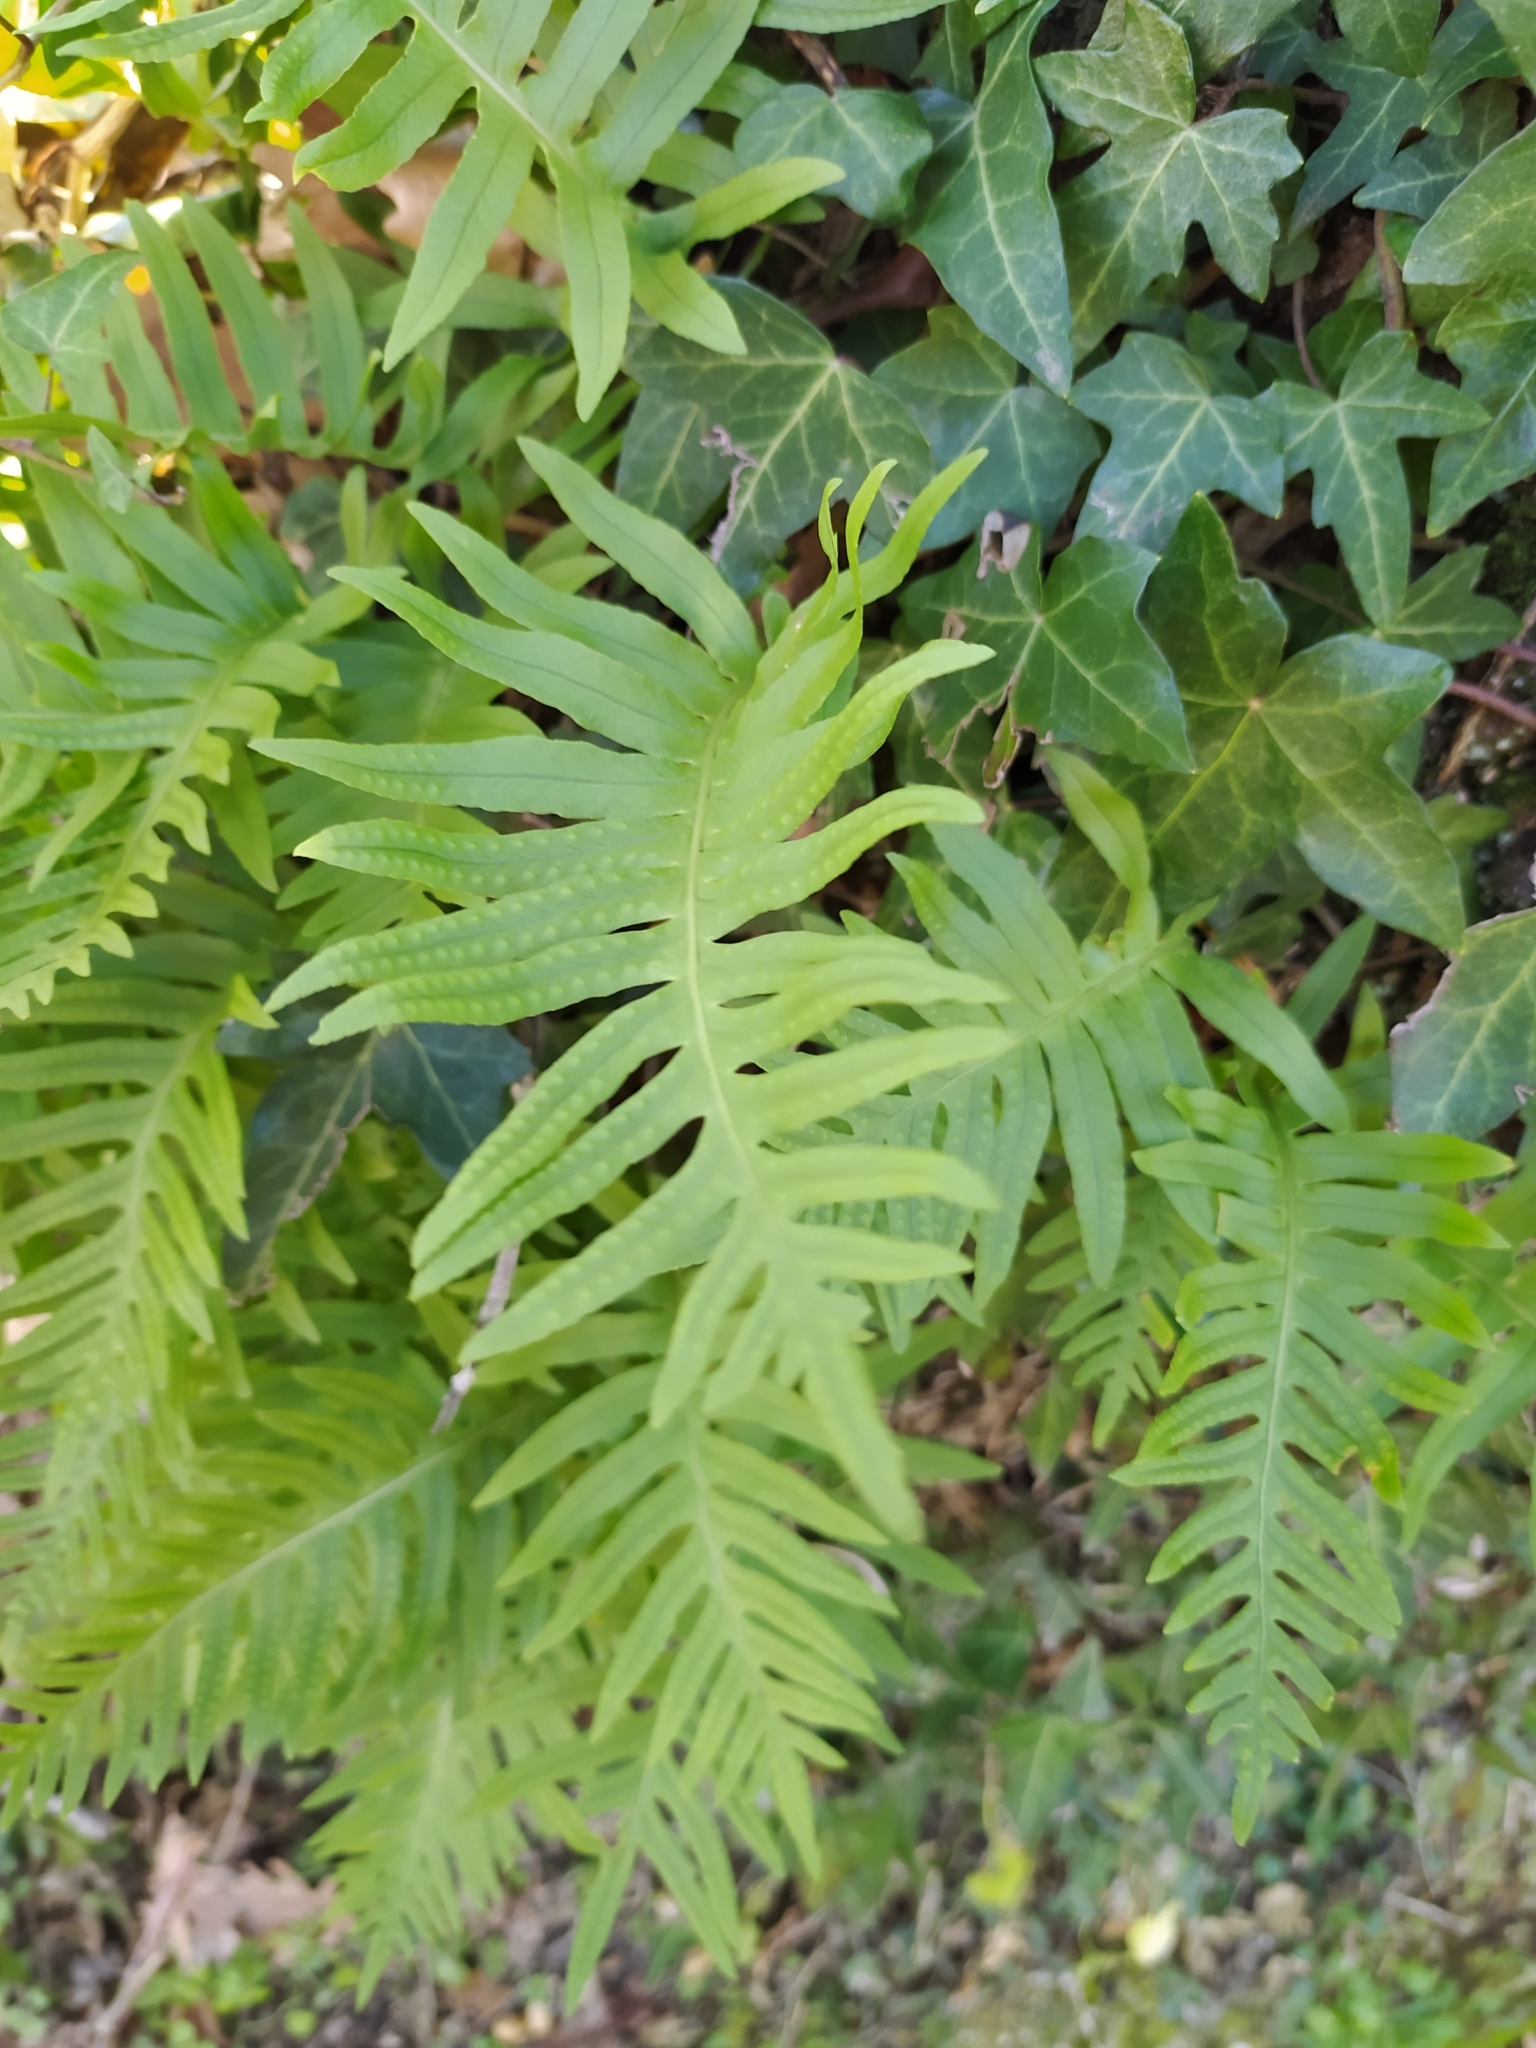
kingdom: Plantae
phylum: Tracheophyta
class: Polypodiopsida
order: Polypodiales
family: Polypodiaceae
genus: Polypodium
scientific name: Polypodium cambricum
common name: Southern polypody
